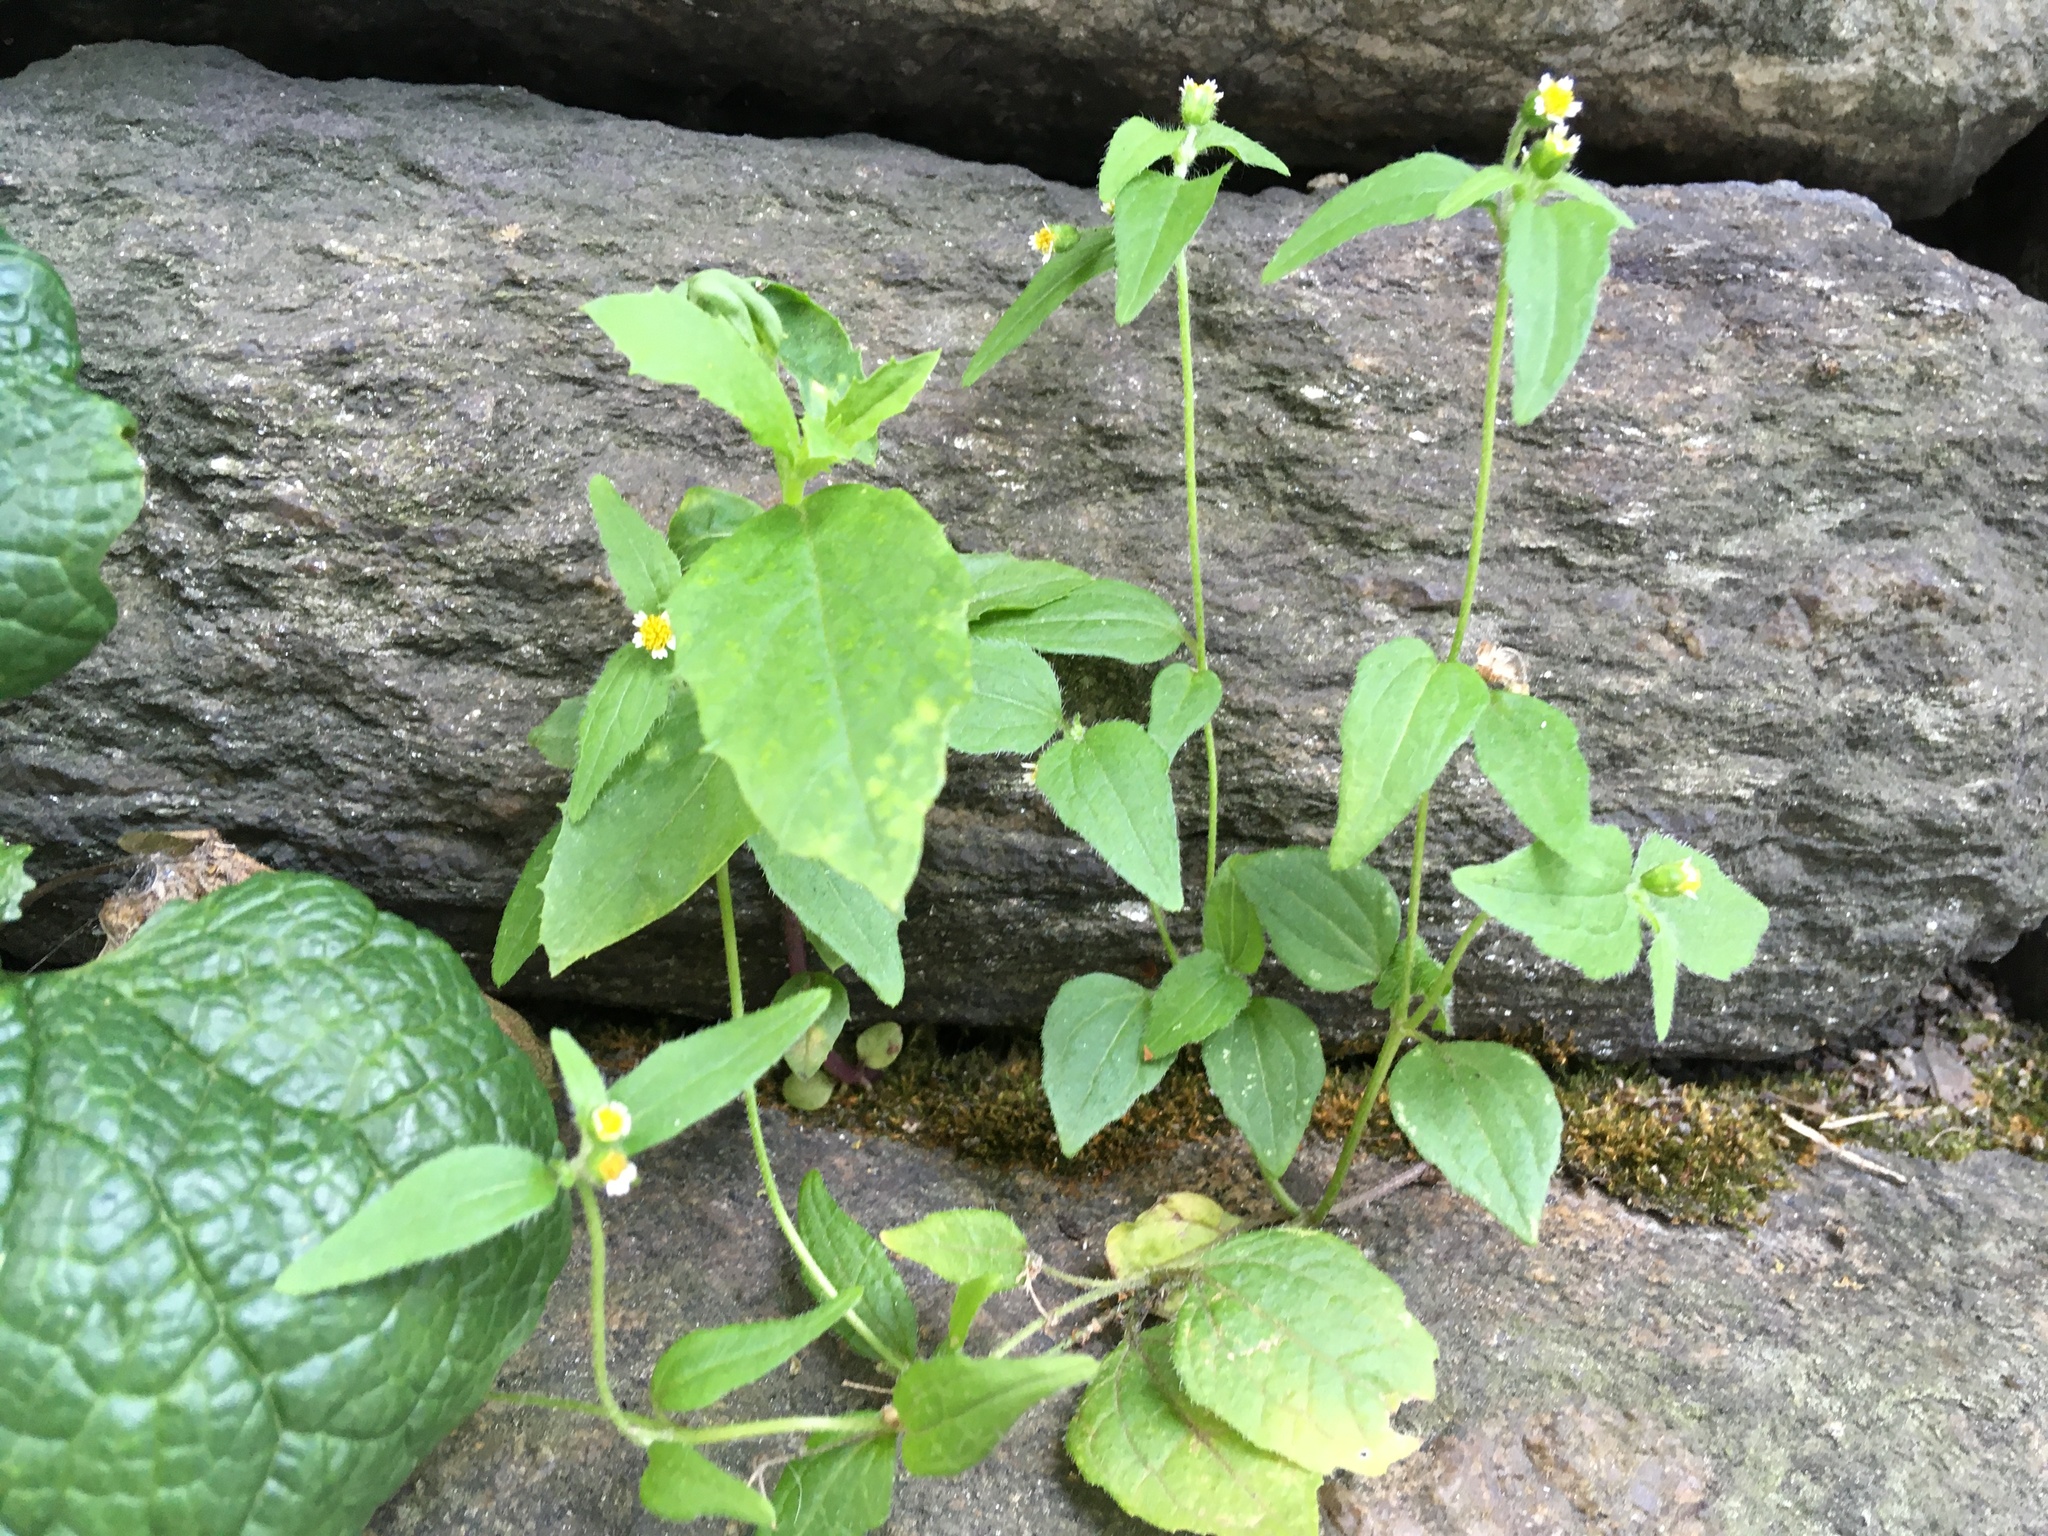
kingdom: Plantae
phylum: Tracheophyta
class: Magnoliopsida
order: Asterales
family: Asteraceae
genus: Galinsoga
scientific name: Galinsoga quadriradiata
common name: Shaggy soldier
